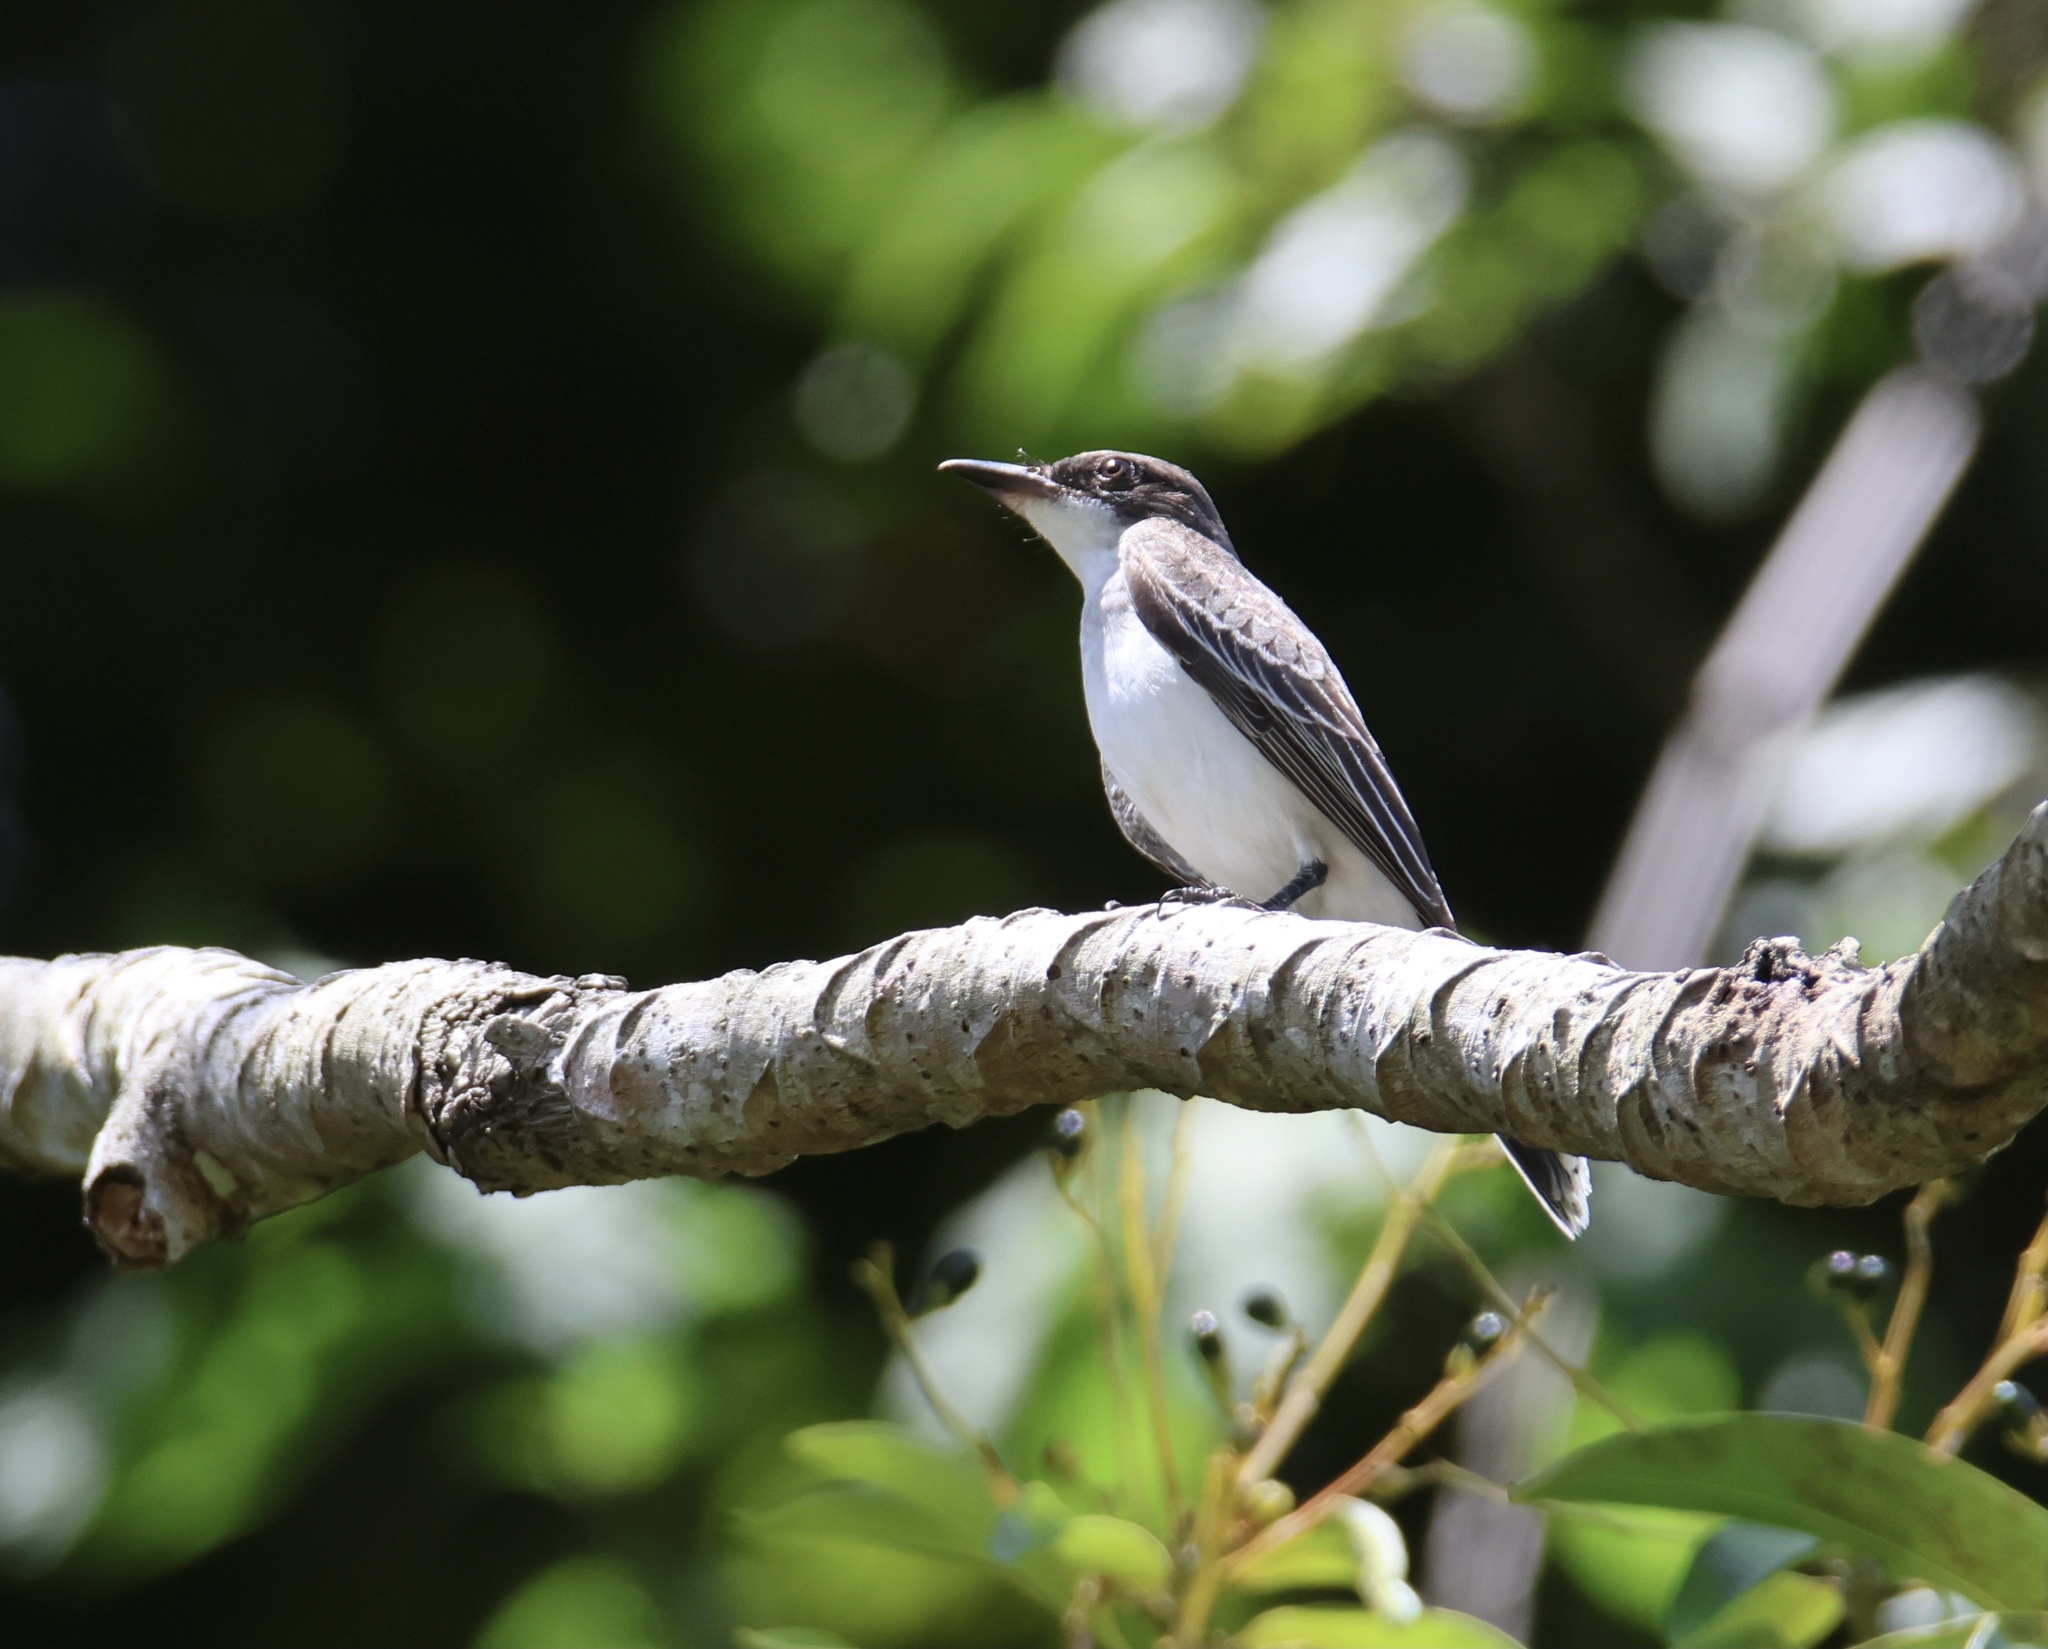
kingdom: Animalia
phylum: Chordata
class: Aves
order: Passeriformes
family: Tyrannidae
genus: Tyrannus
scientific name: Tyrannus tyrannus
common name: Eastern kingbird
